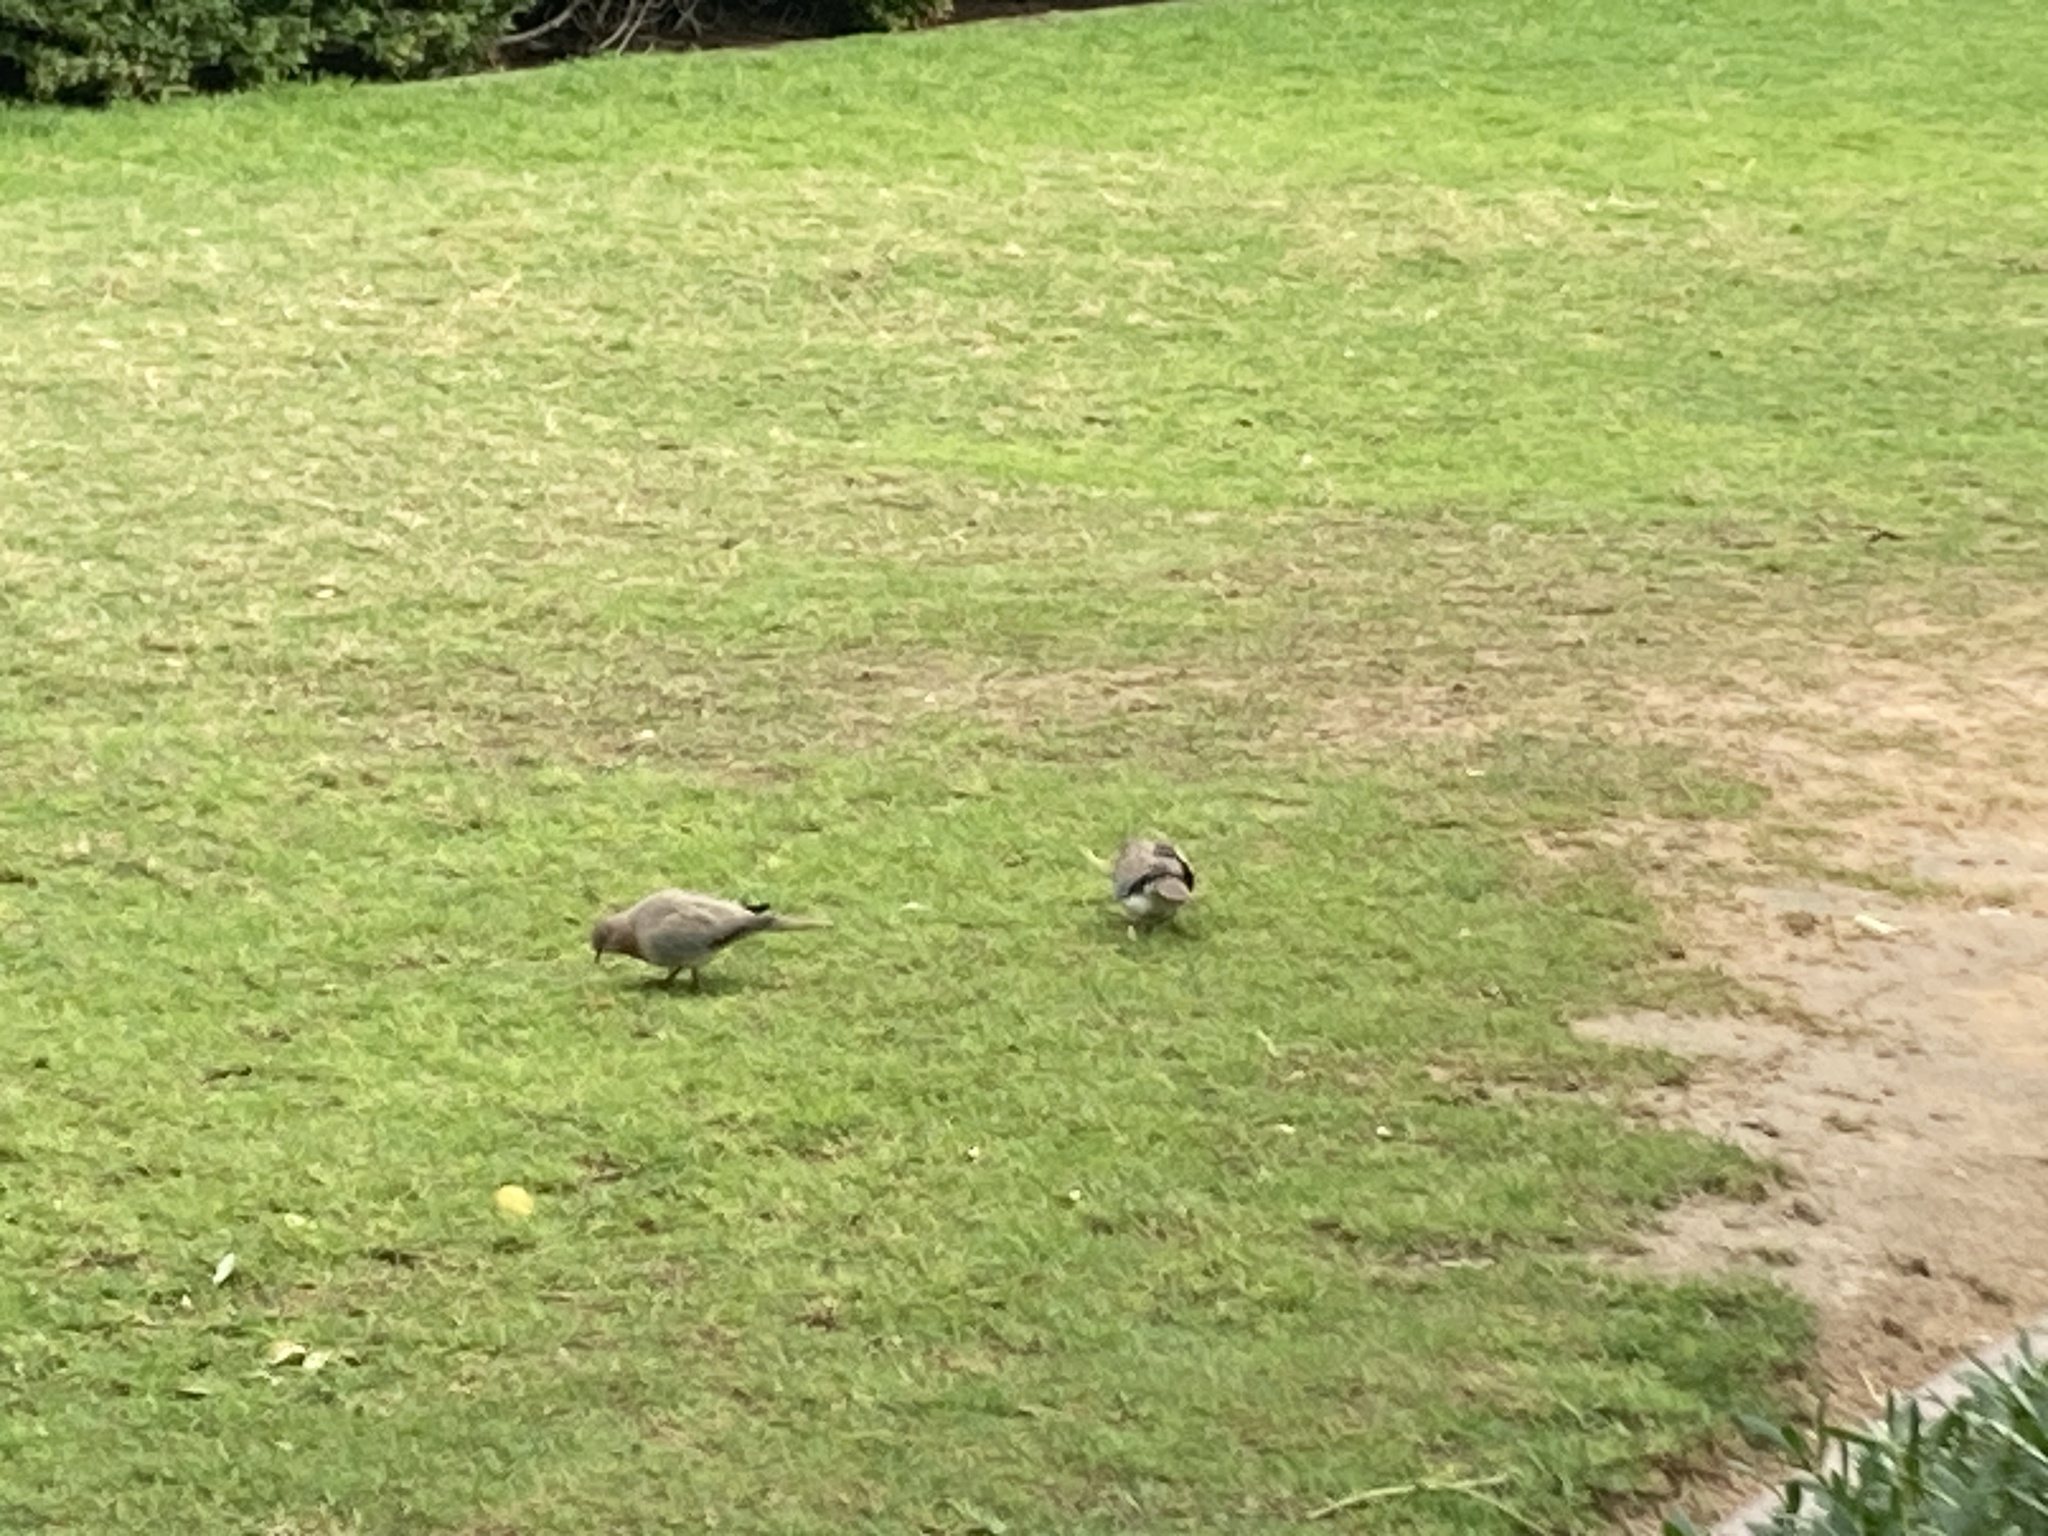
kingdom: Animalia
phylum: Chordata
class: Aves
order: Columbiformes
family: Columbidae
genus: Spilopelia
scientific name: Spilopelia senegalensis
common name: Laughing dove
